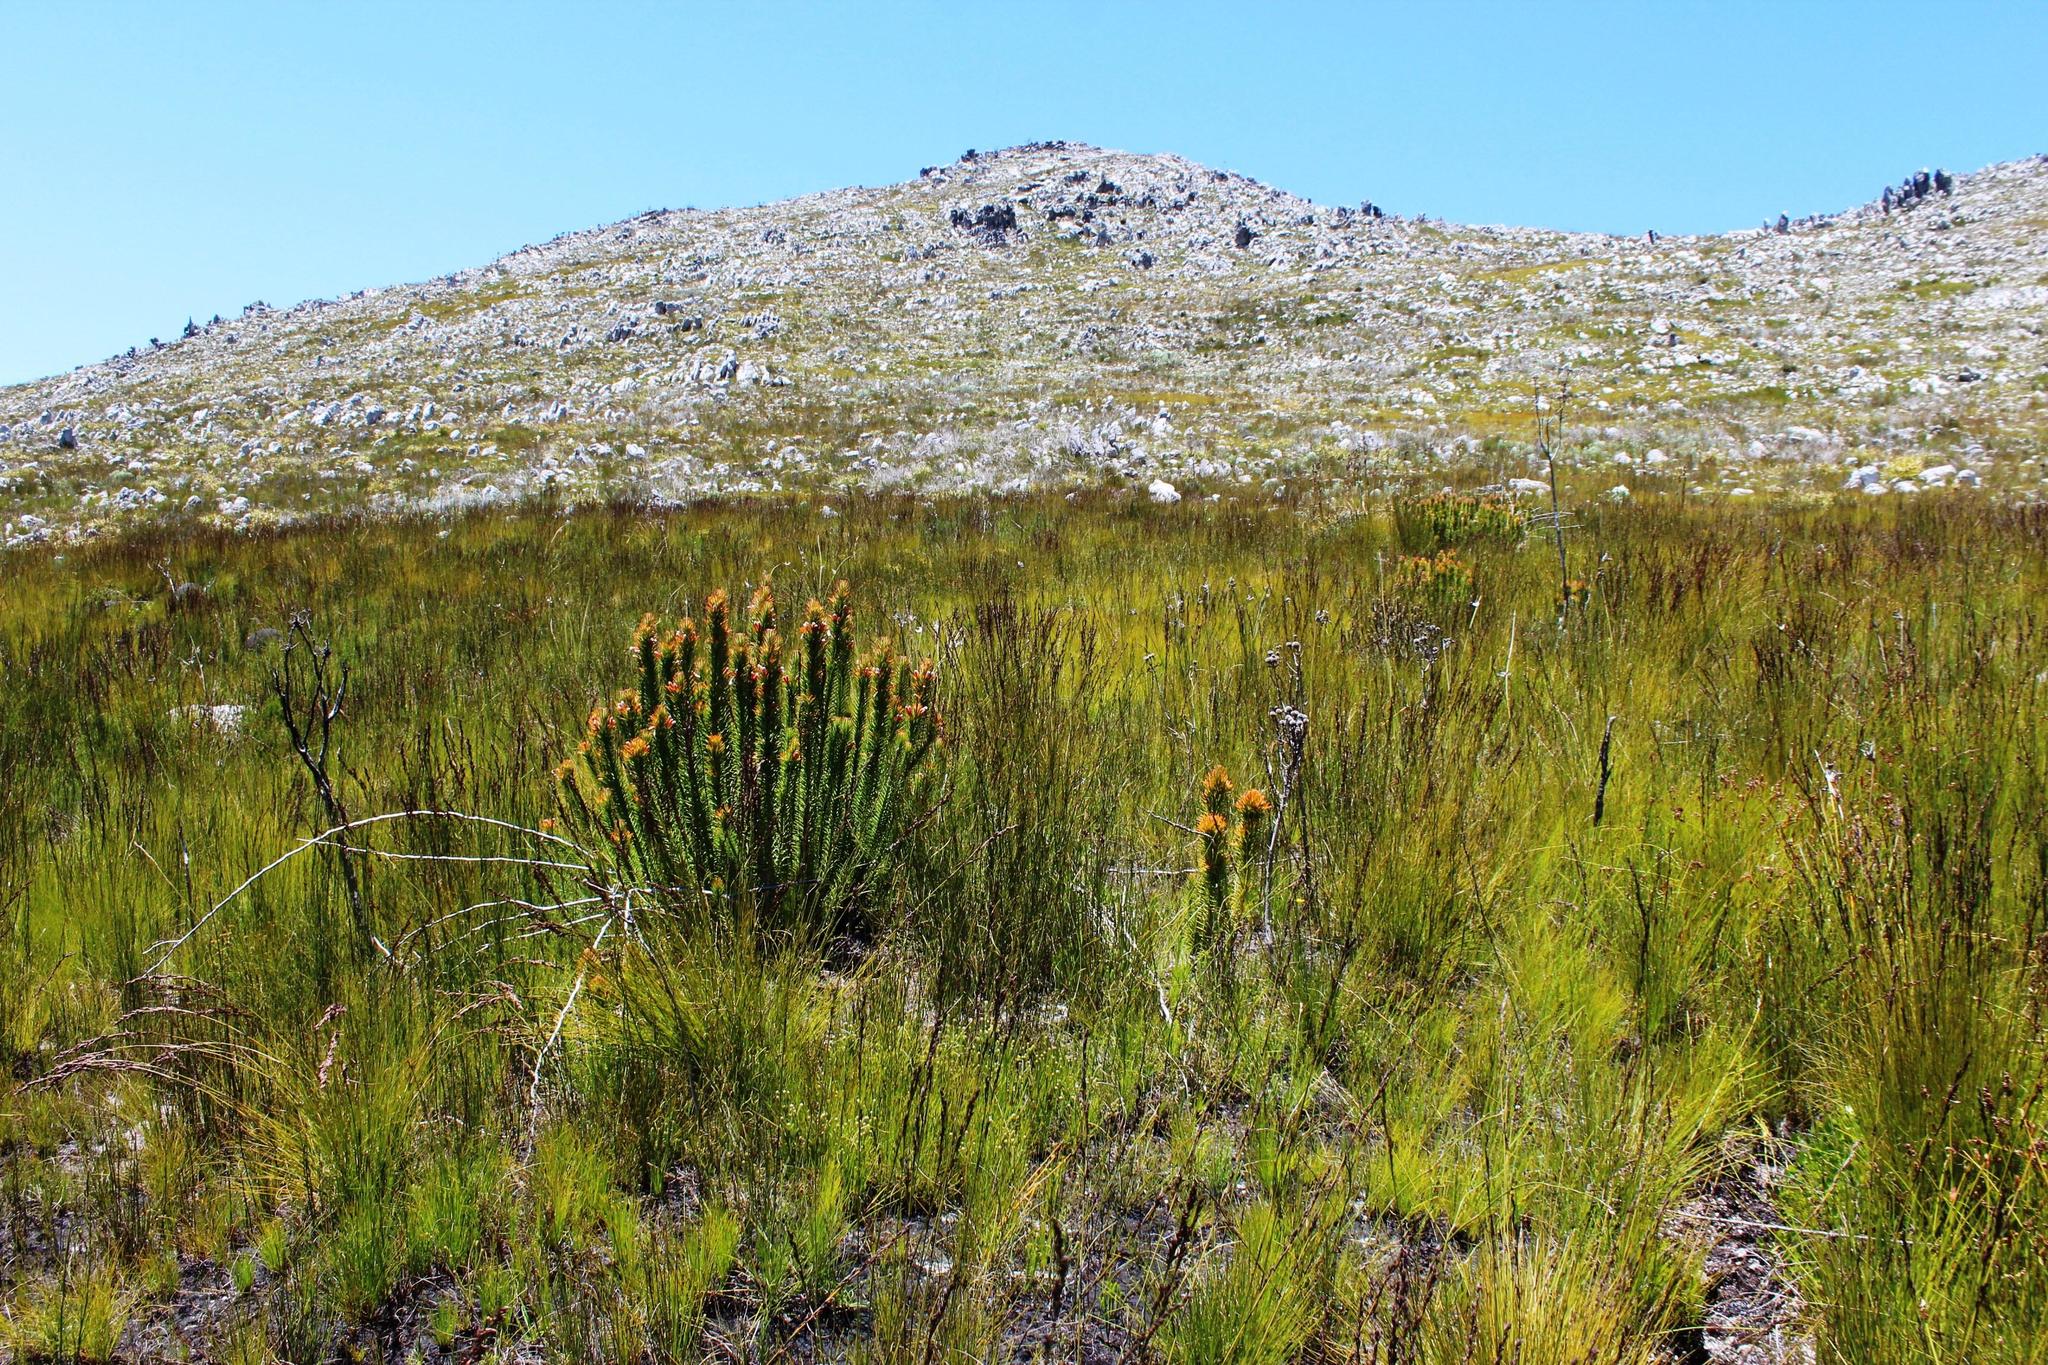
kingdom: Plantae
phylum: Tracheophyta
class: Magnoliopsida
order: Lamiales
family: Stilbaceae
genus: Retzia
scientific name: Retzia capensis
